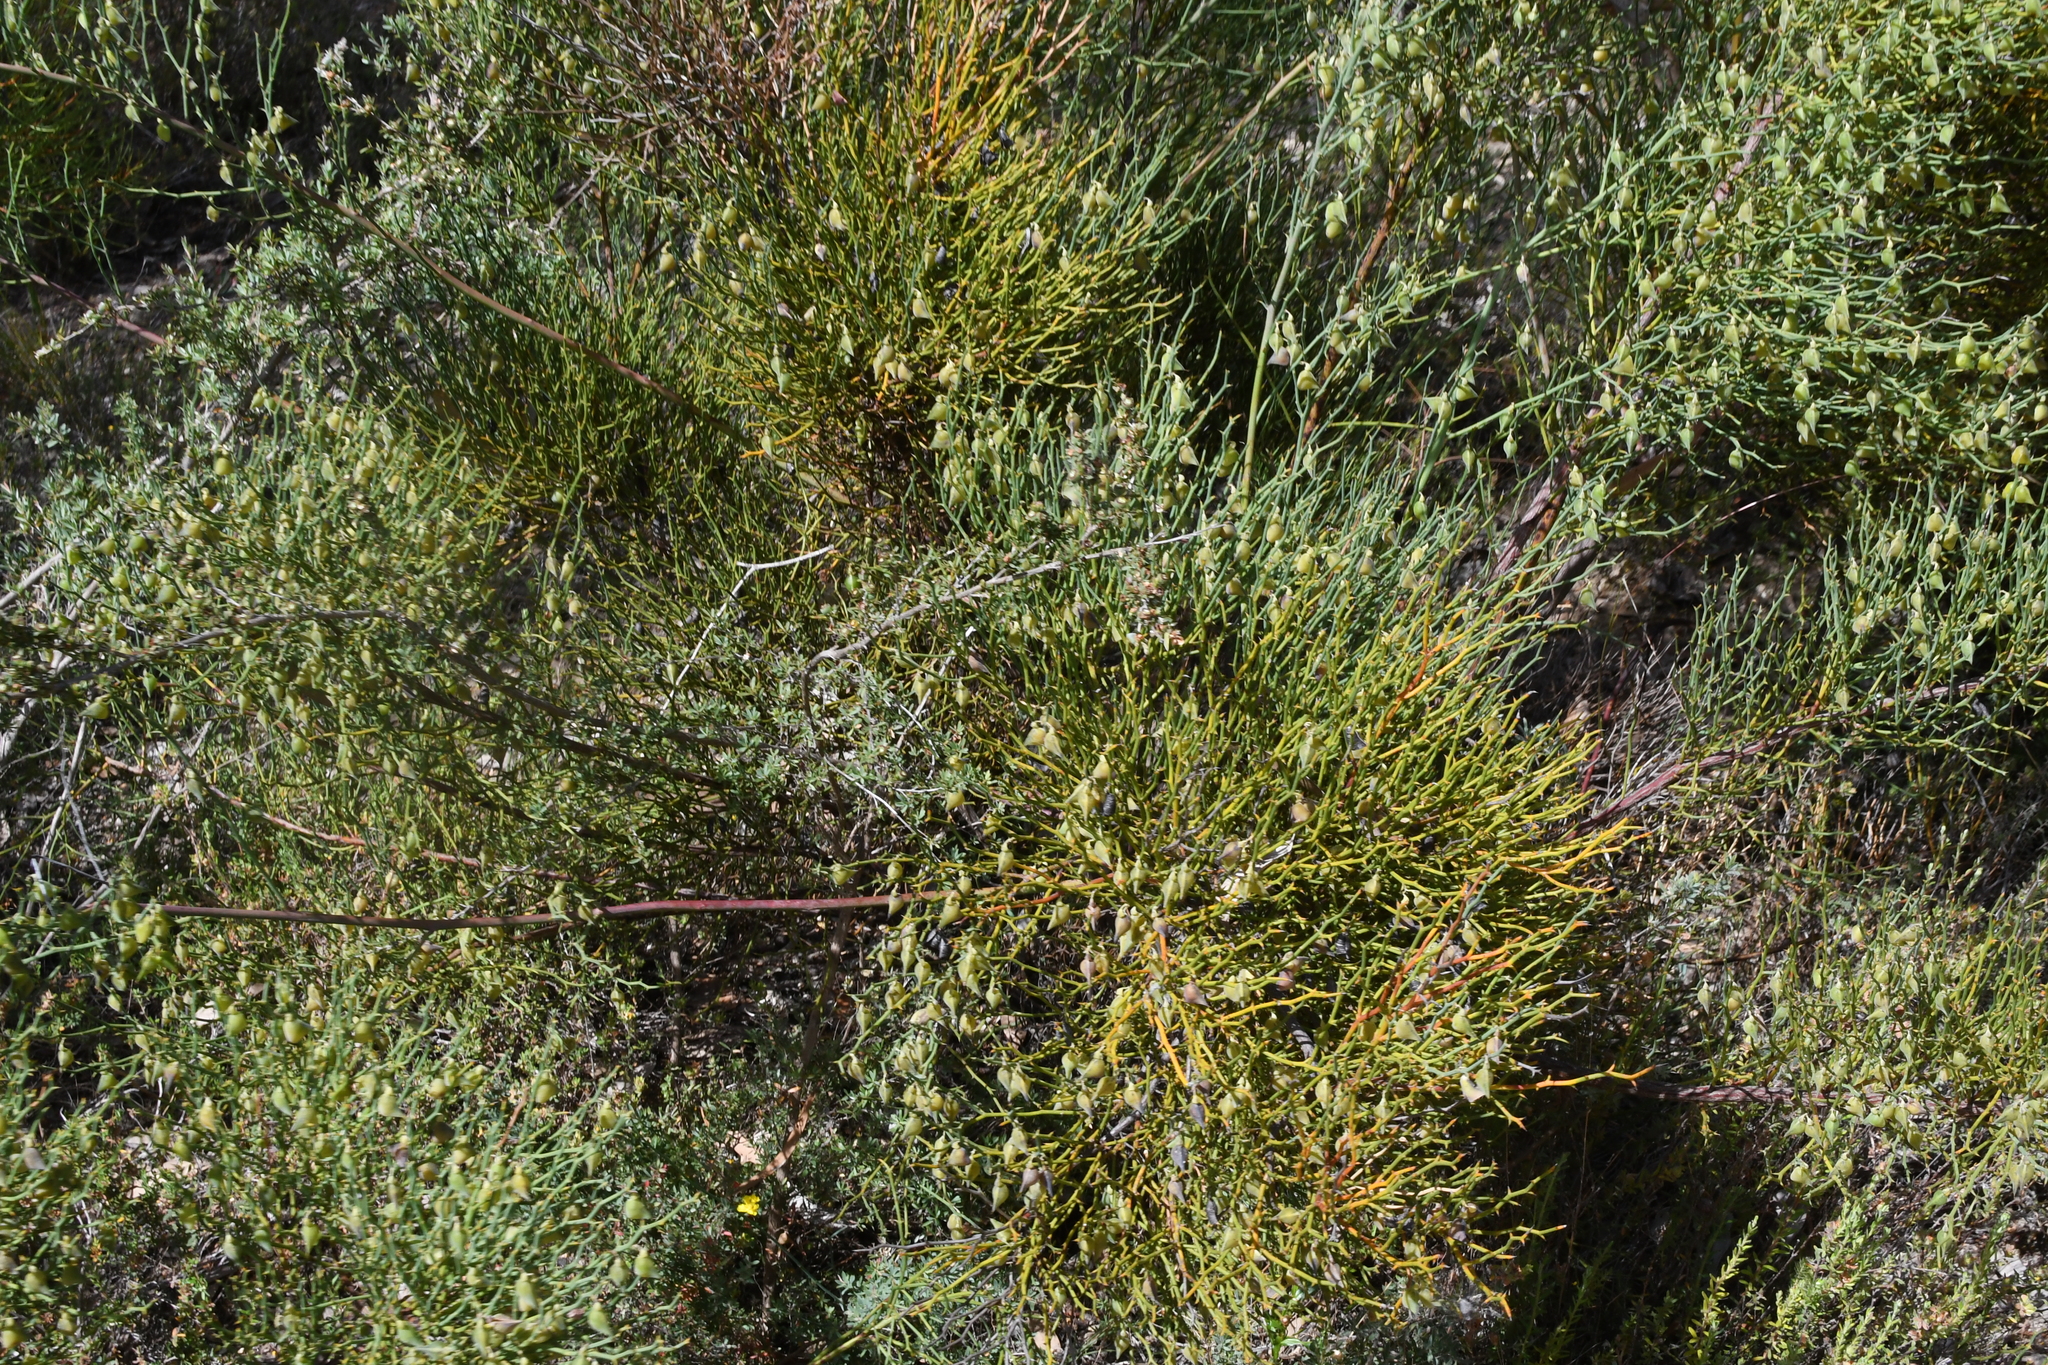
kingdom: Plantae
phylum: Tracheophyta
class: Magnoliopsida
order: Fabales
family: Fabaceae
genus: Daviesia
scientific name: Daviesia brevifolia
